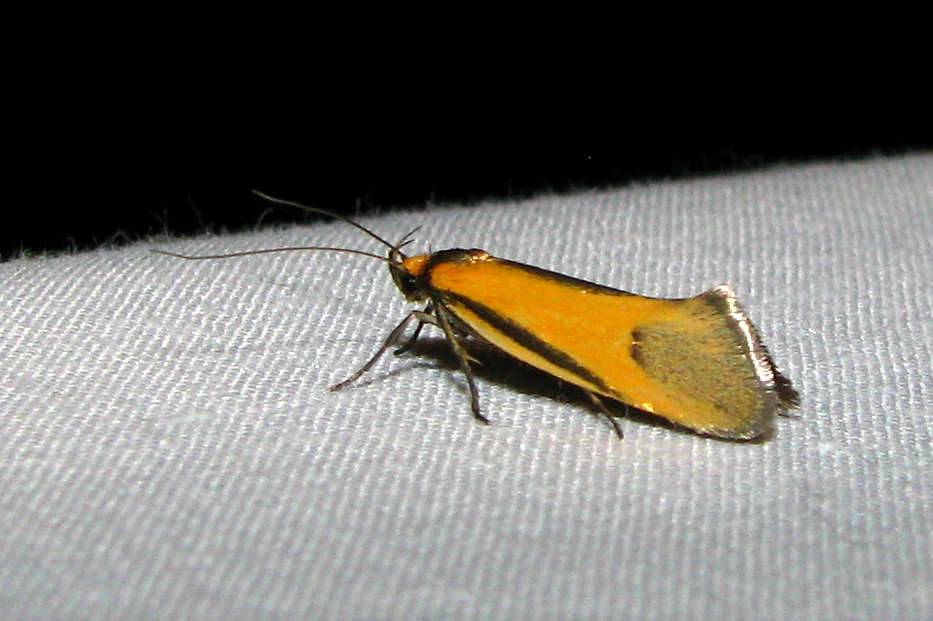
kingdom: Animalia
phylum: Arthropoda
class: Insecta
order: Lepidoptera
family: Oecophoridae
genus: Philobota
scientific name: Philobota arabella
